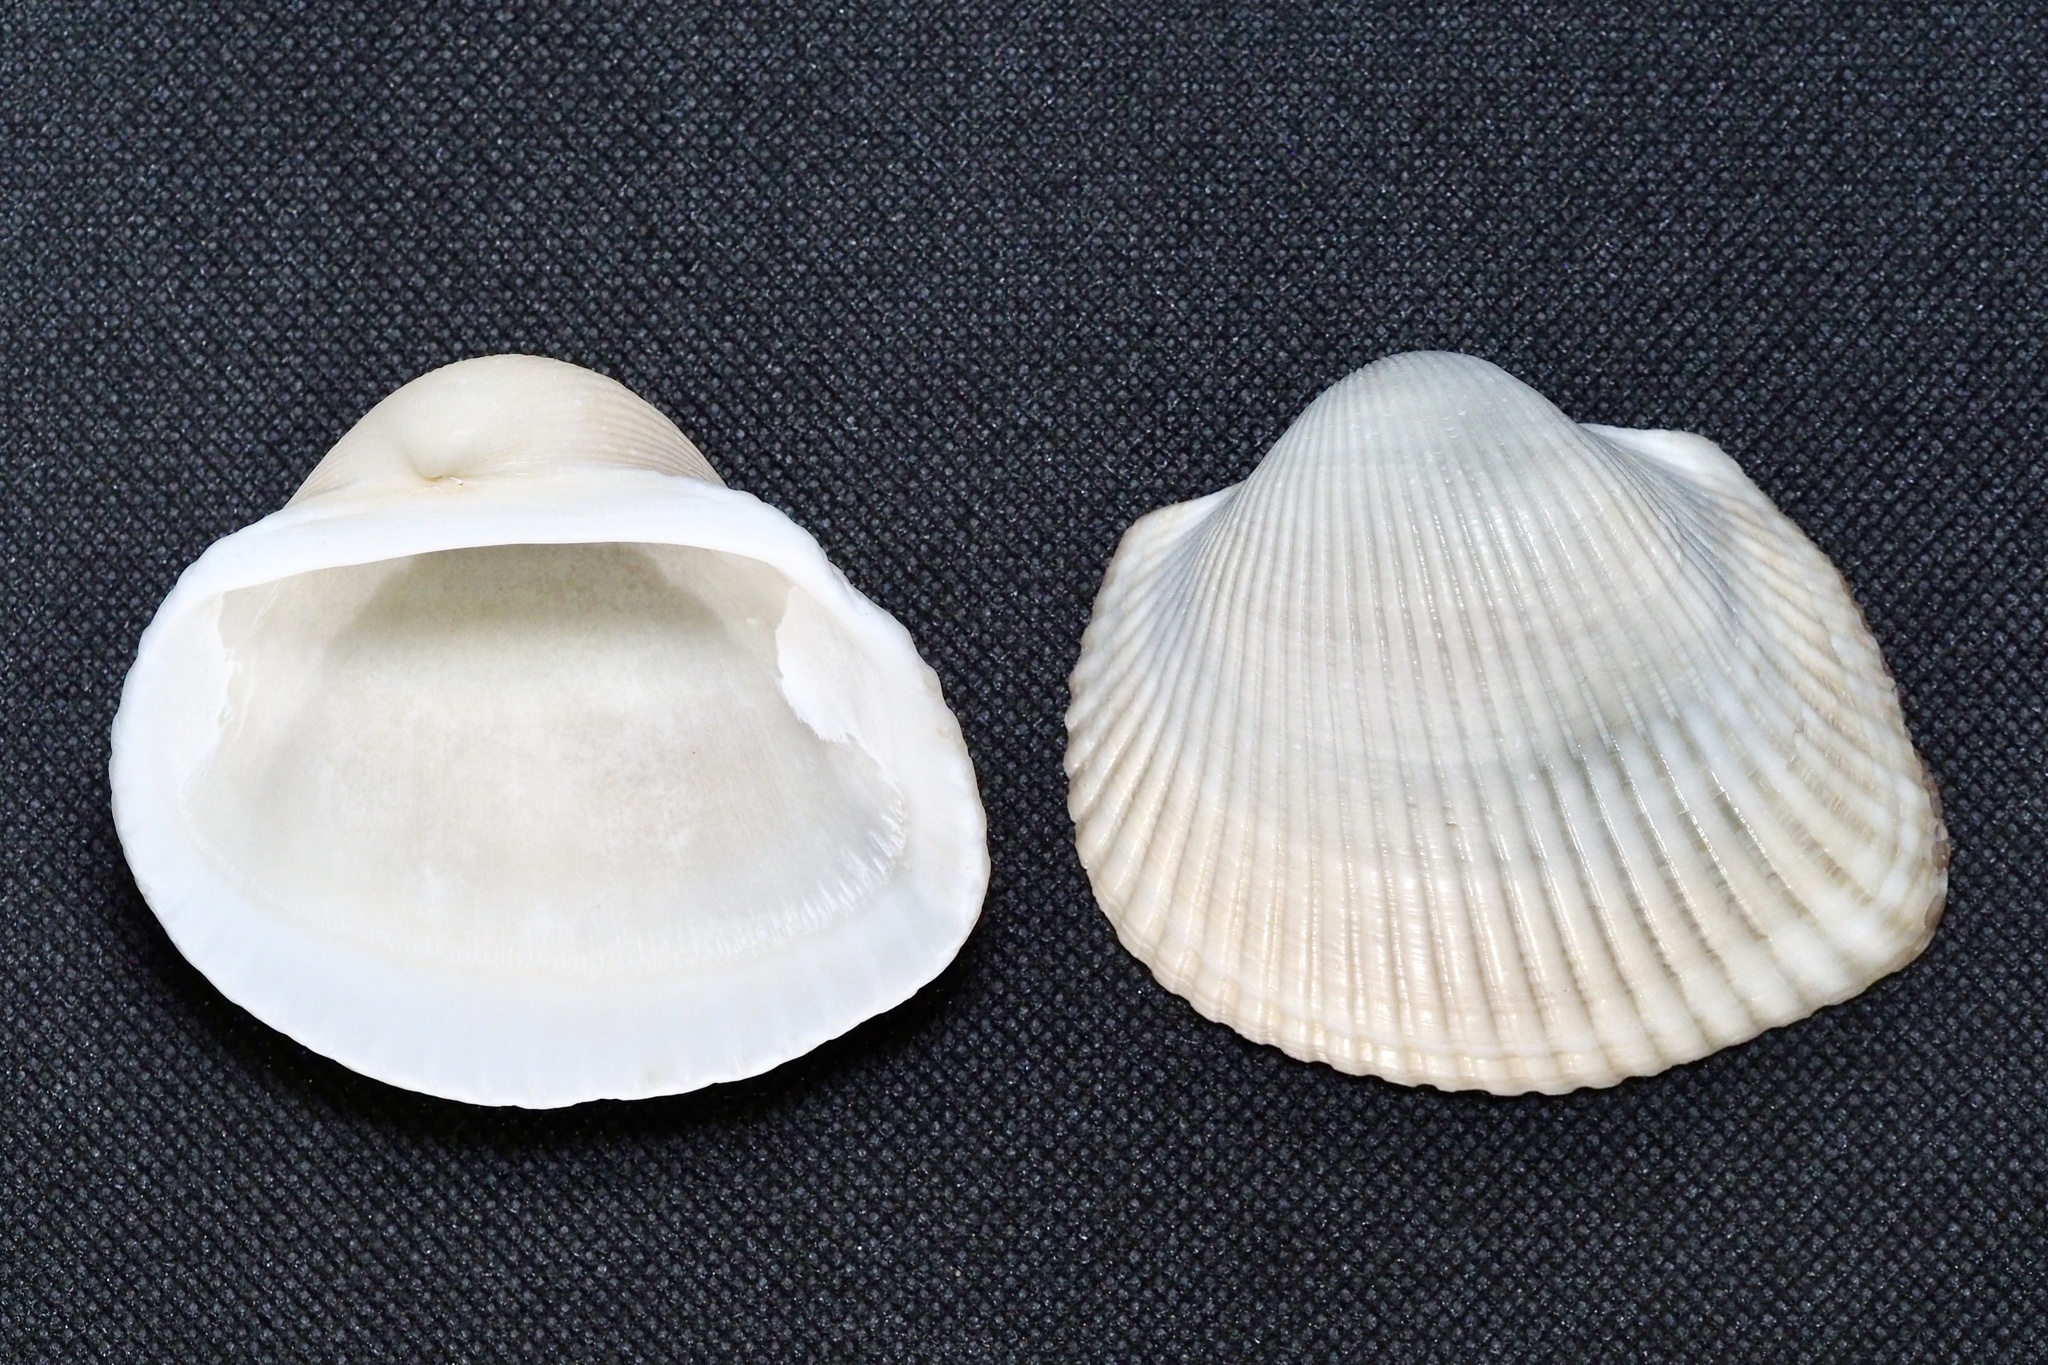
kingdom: Animalia
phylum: Mollusca
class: Bivalvia
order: Arcida
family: Arcidae
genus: Anadara
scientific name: Anadara kagoshimensis
